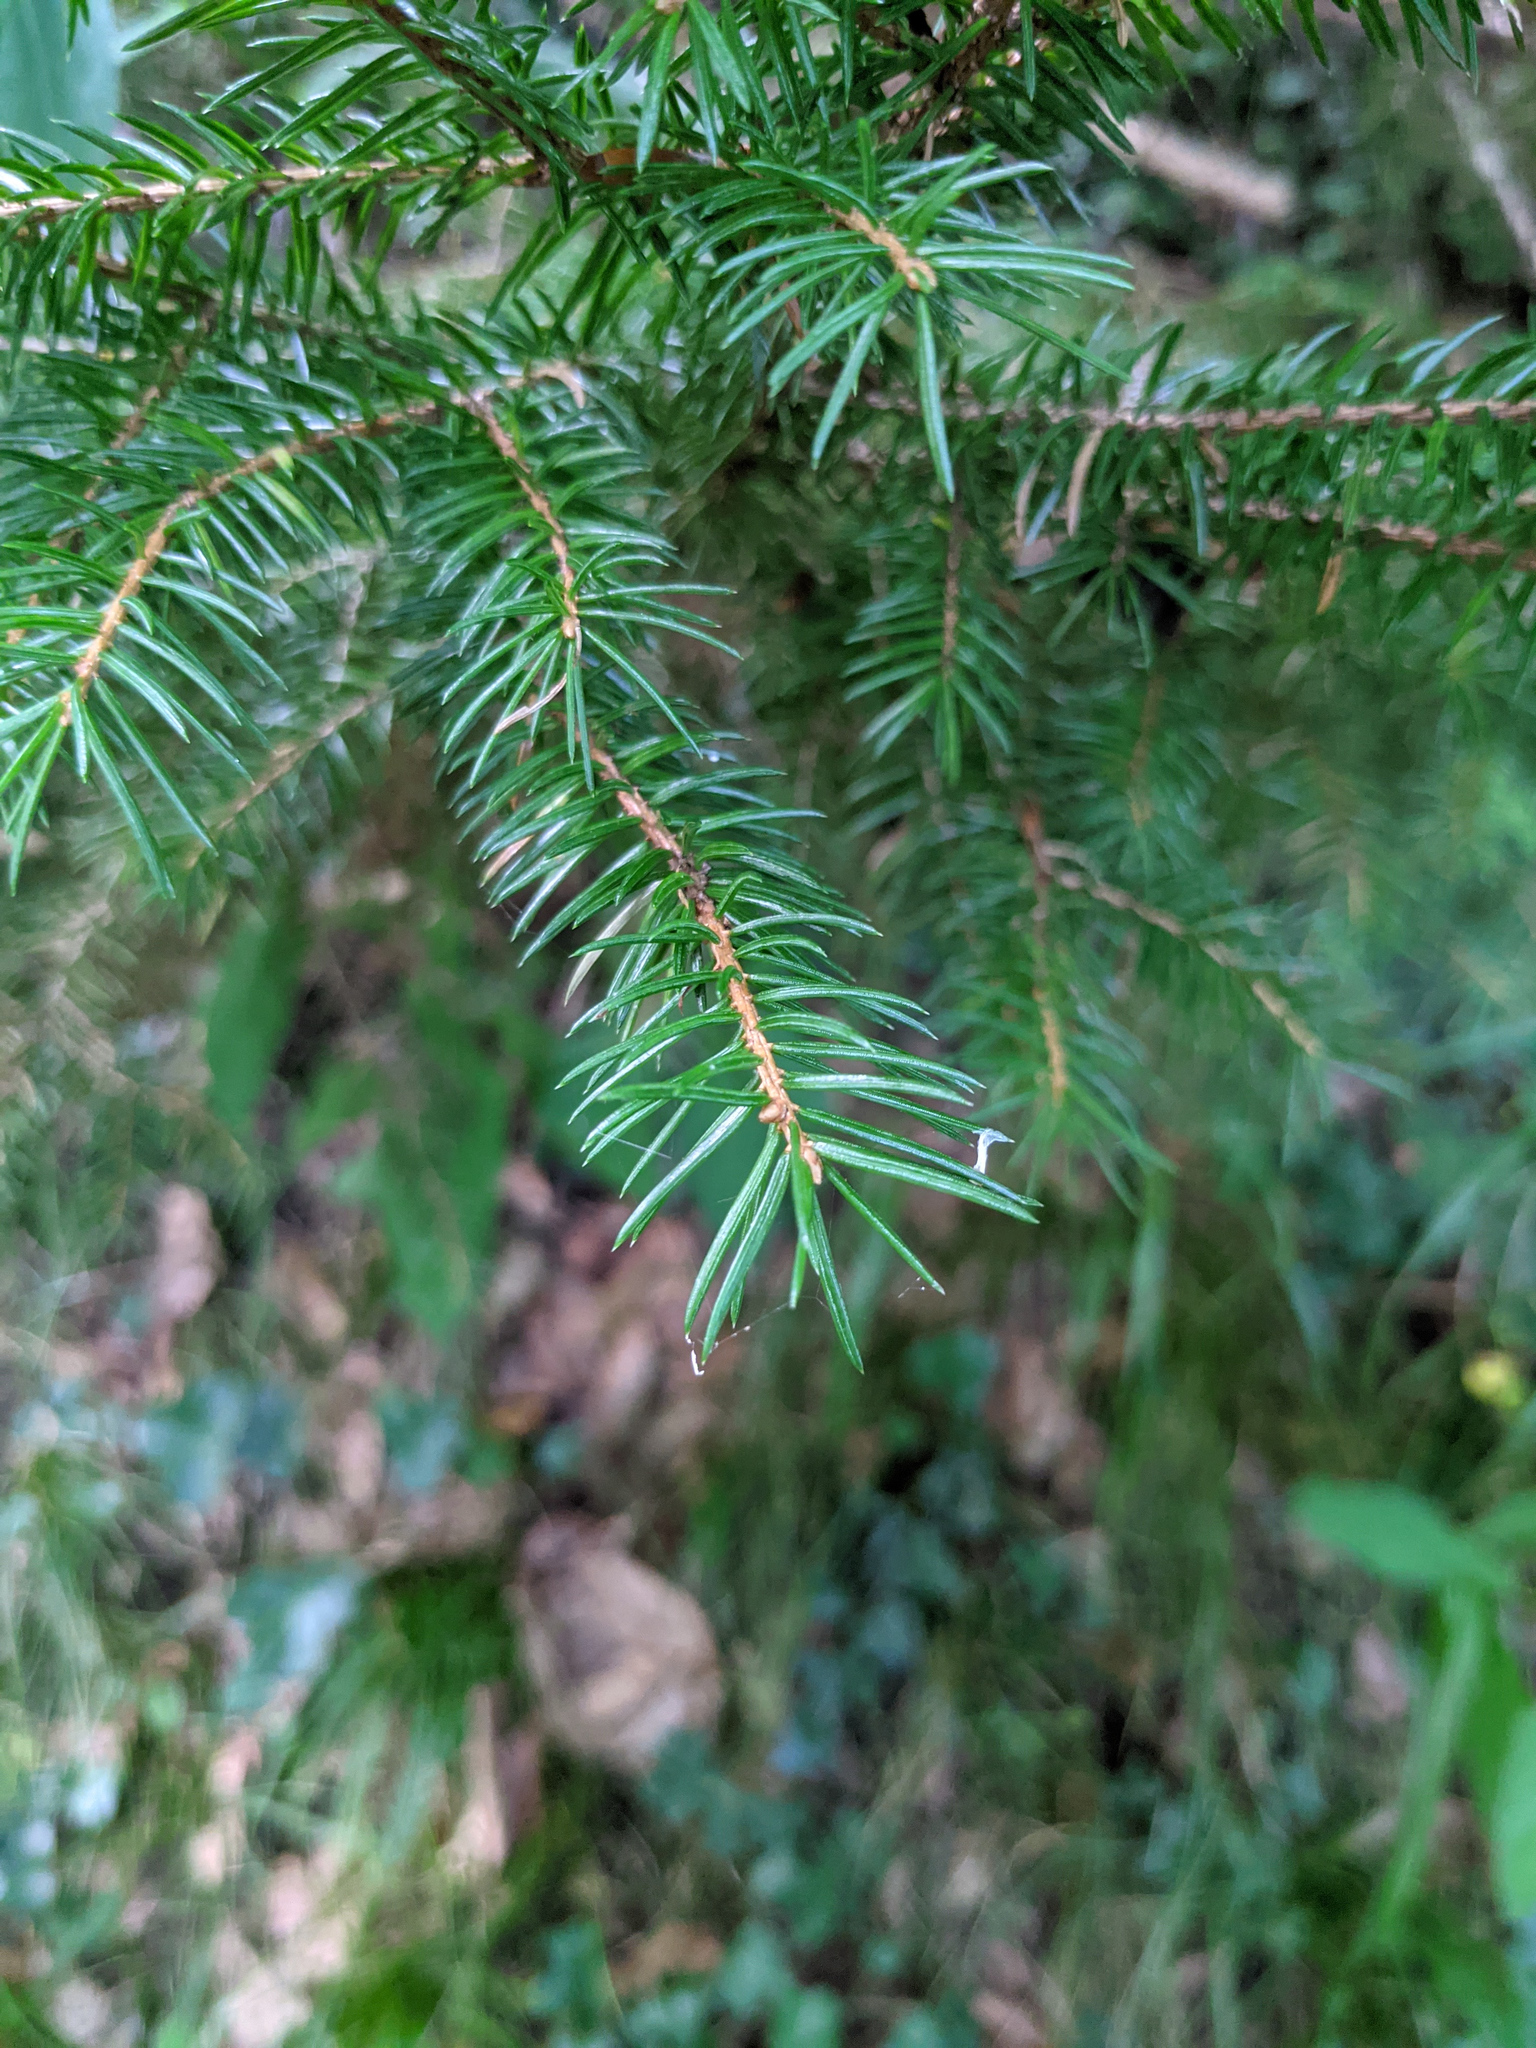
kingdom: Plantae
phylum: Tracheophyta
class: Pinopsida
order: Pinales
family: Pinaceae
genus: Picea
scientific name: Picea abies
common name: Norway spruce
